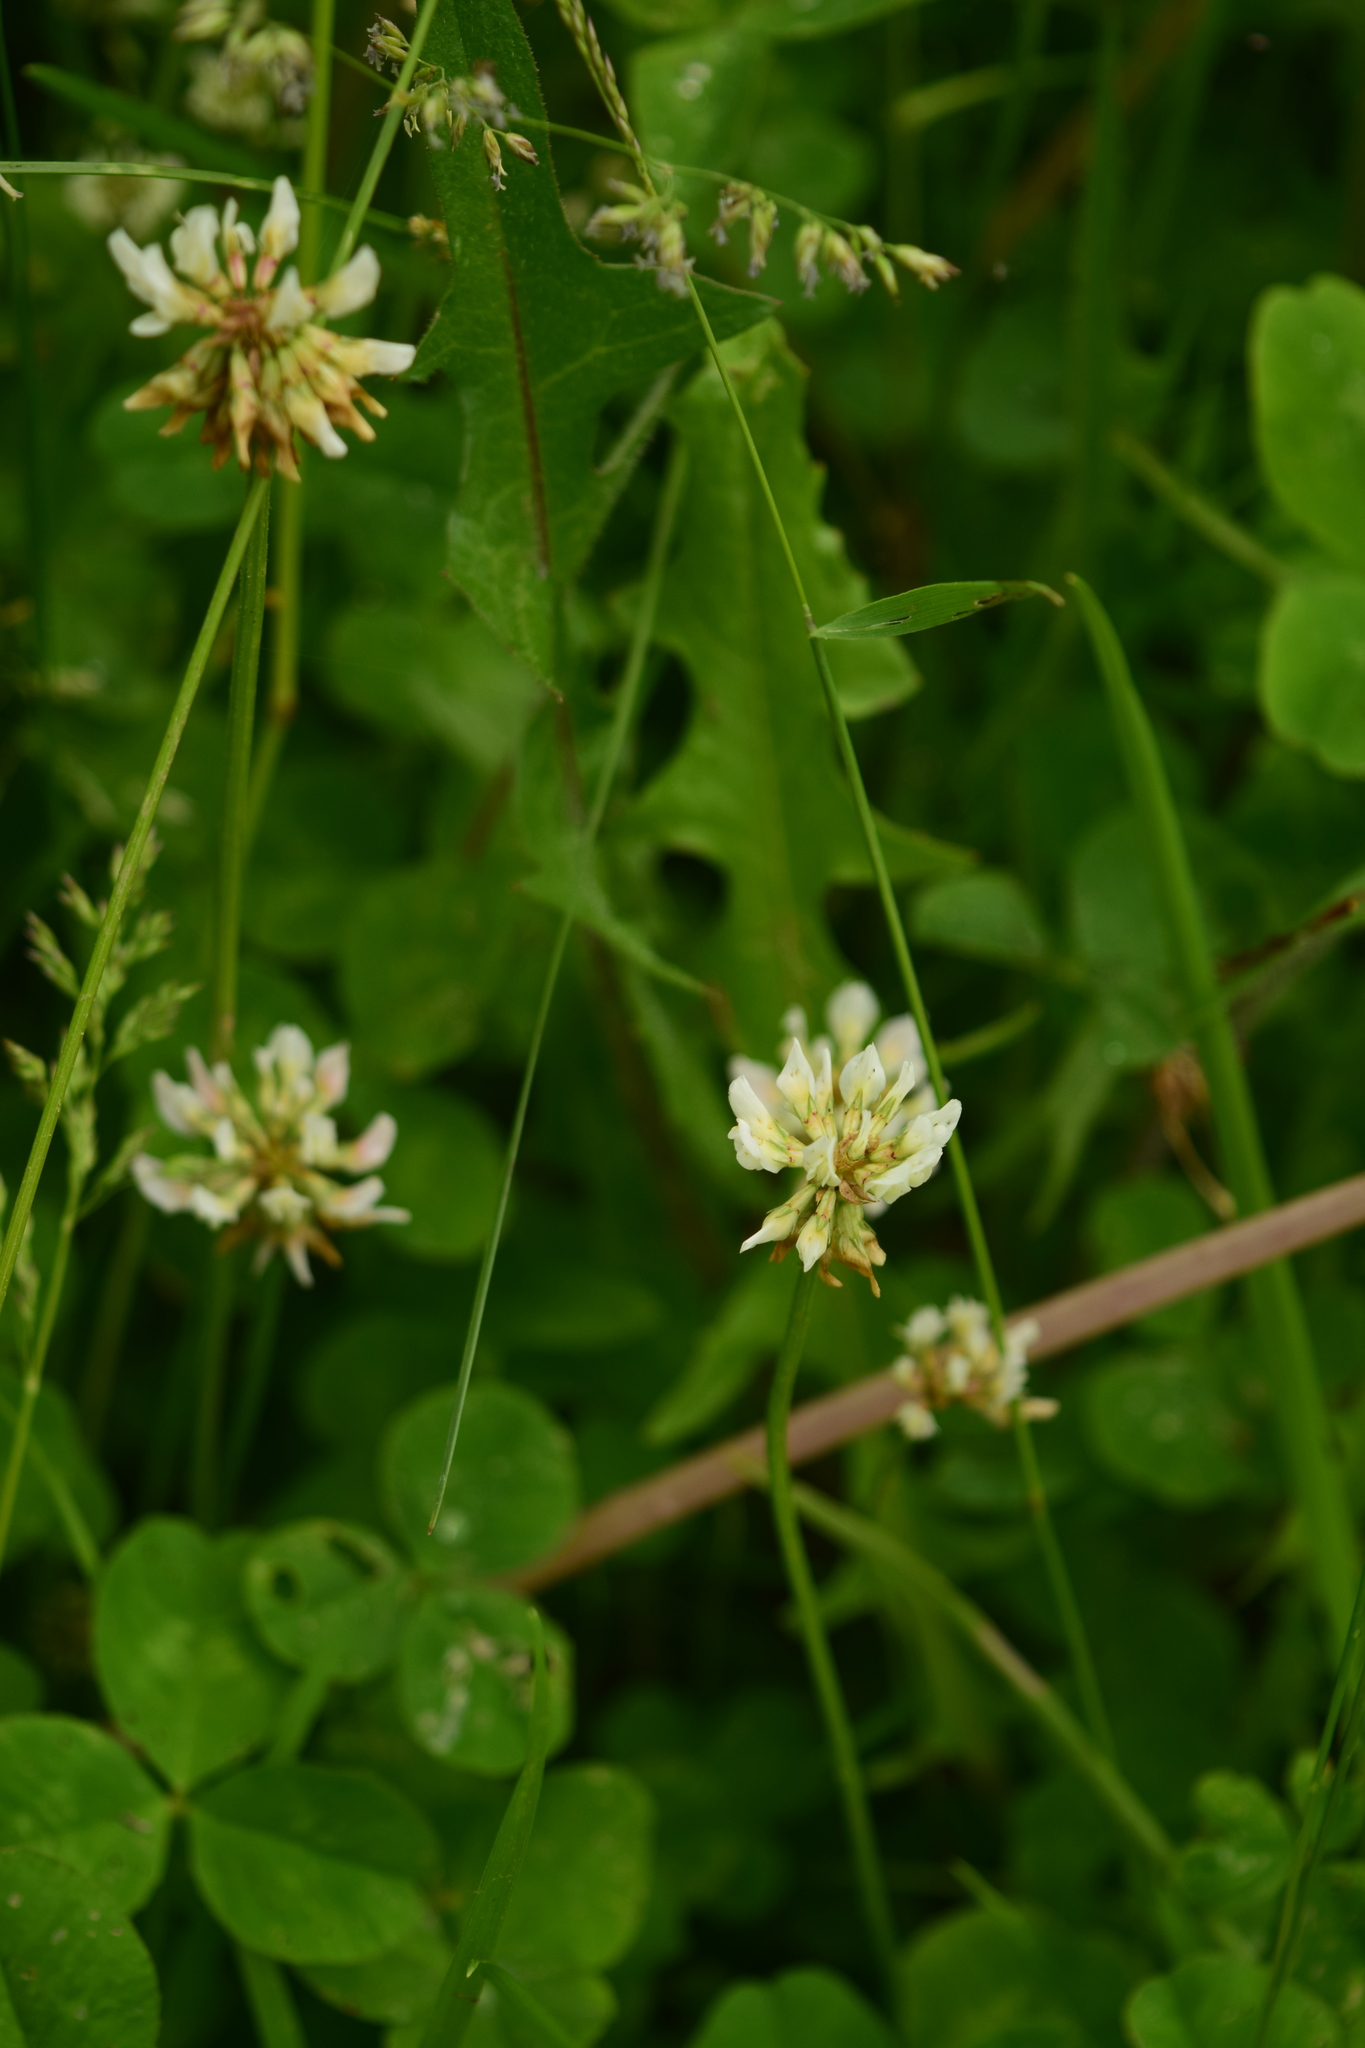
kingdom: Plantae
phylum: Tracheophyta
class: Magnoliopsida
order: Fabales
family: Fabaceae
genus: Trifolium
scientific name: Trifolium repens
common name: White clover
